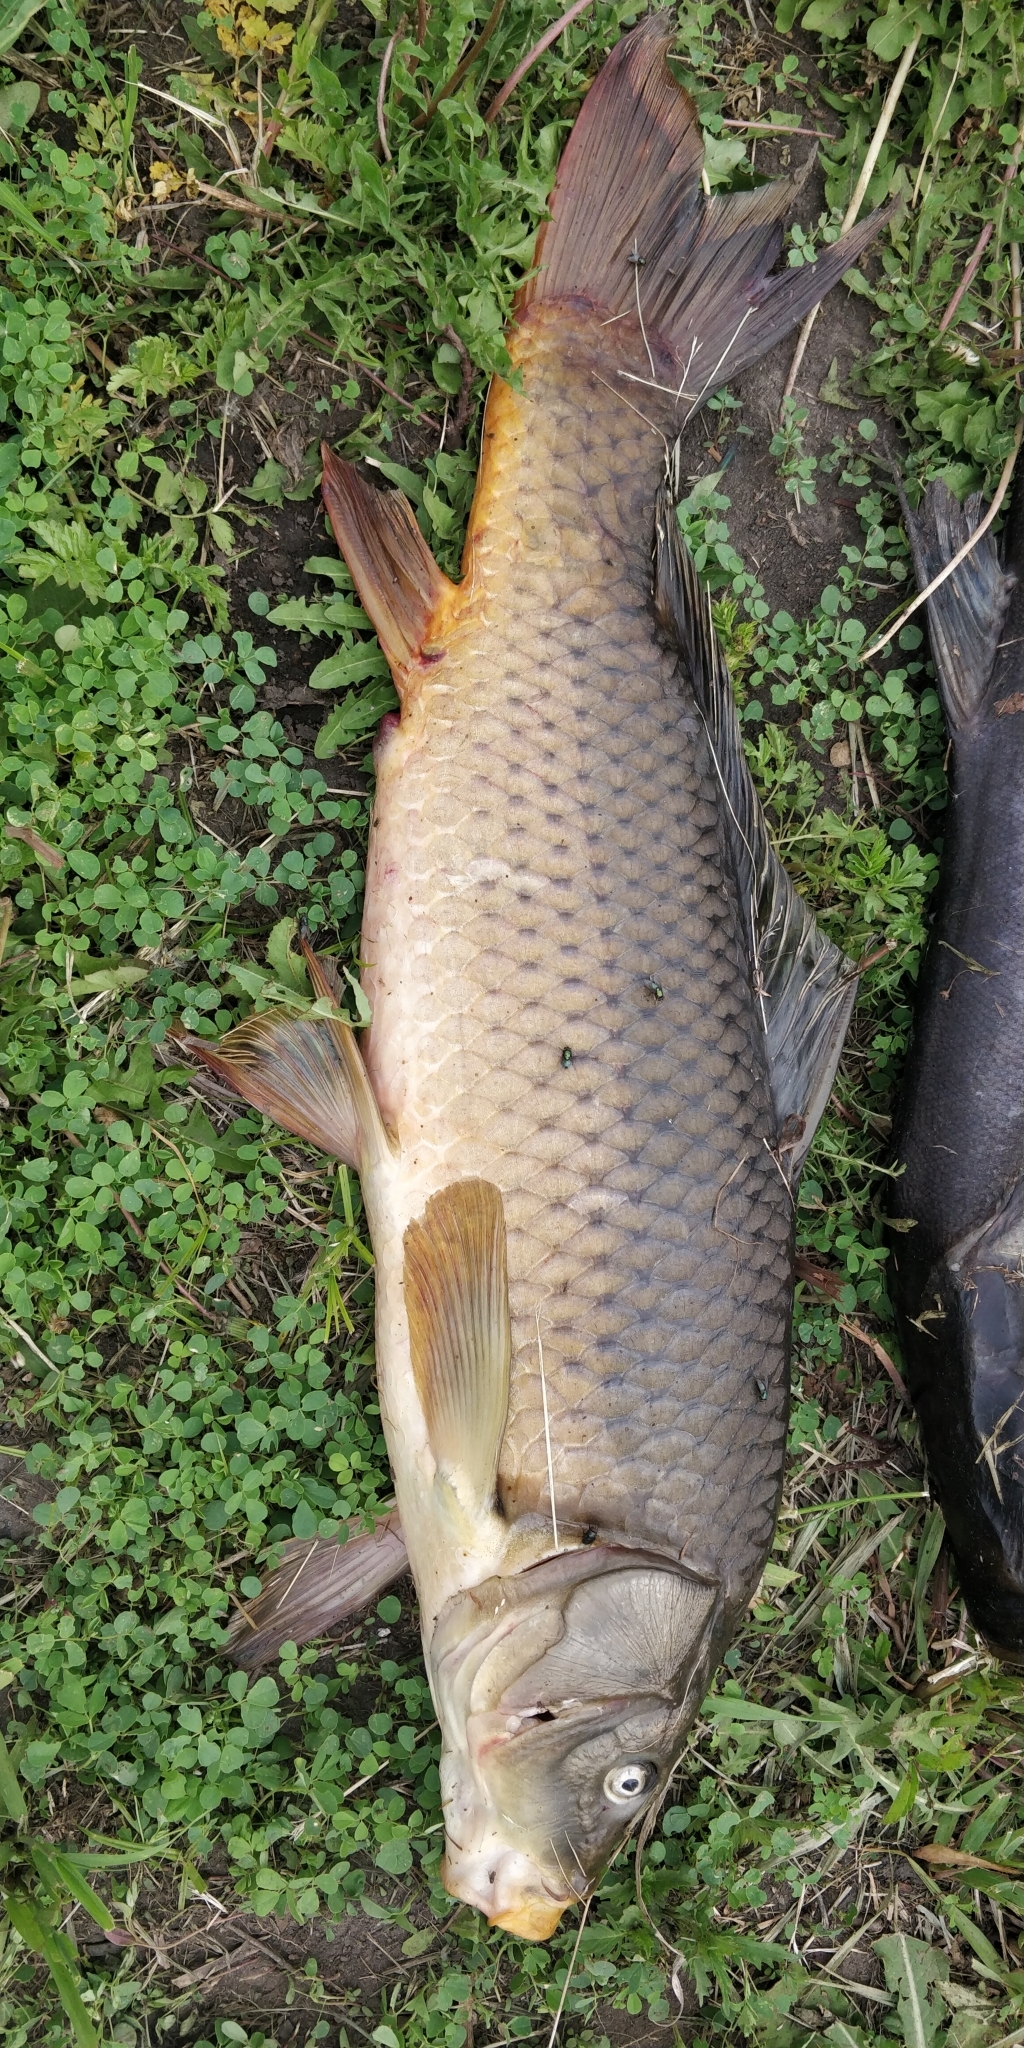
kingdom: Animalia
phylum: Chordata
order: Cypriniformes
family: Cyprinidae
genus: Cyprinus
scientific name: Cyprinus carpio
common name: Common carp
